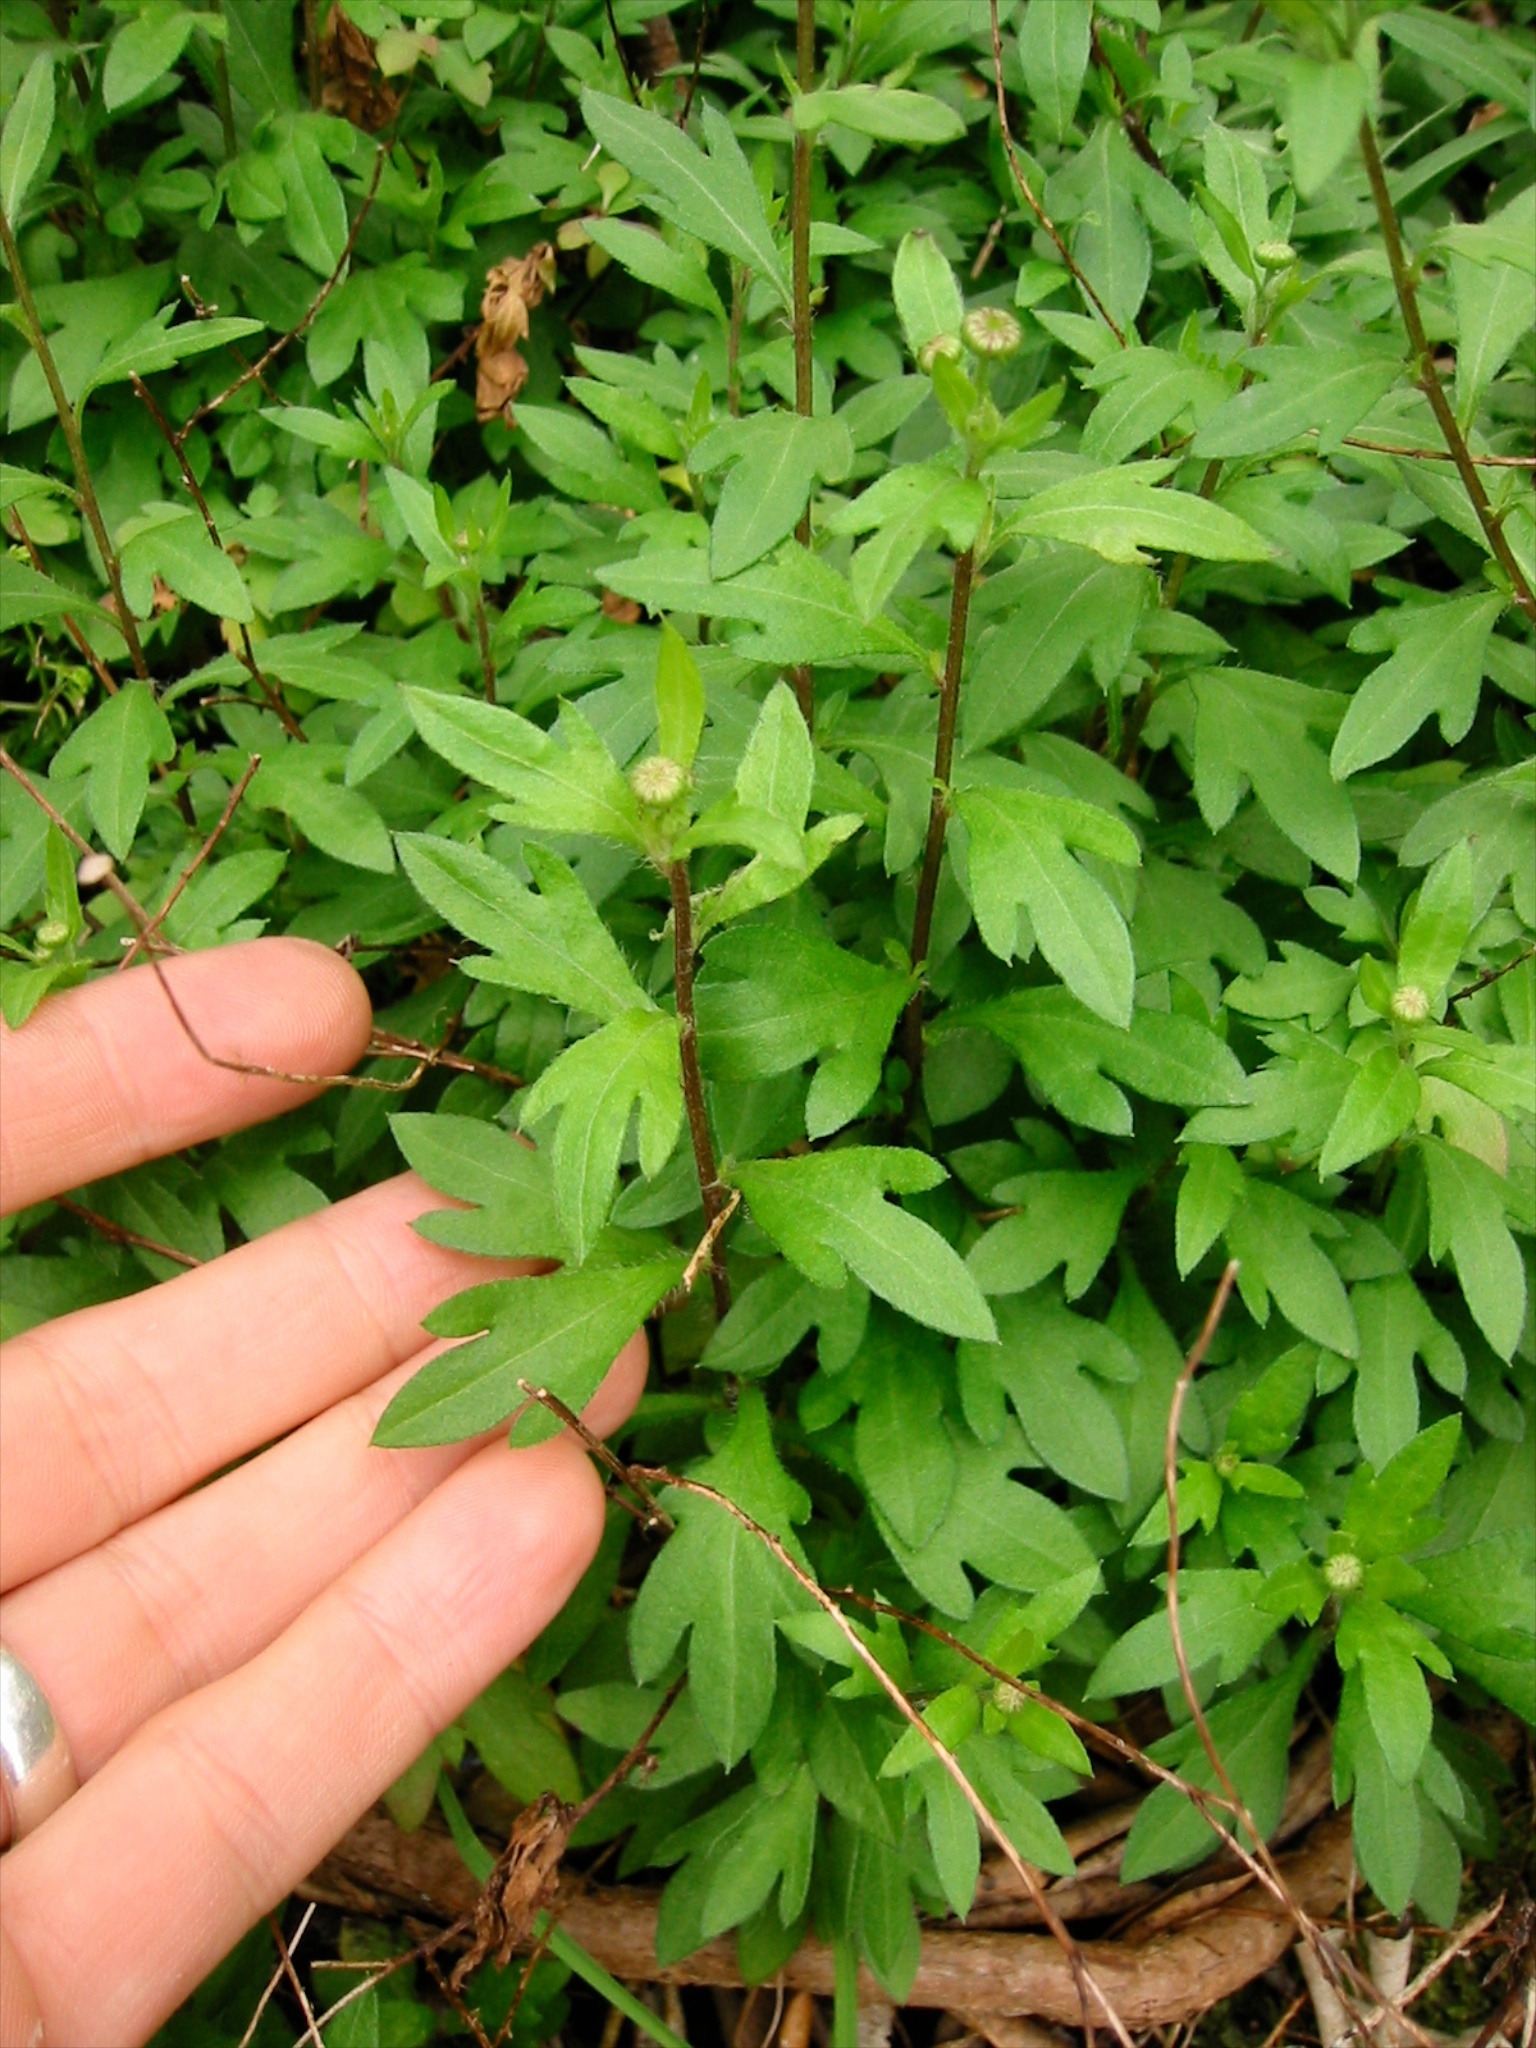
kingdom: Plantae
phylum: Tracheophyta
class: Magnoliopsida
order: Asterales
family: Asteraceae
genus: Erigeron
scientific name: Erigeron karvinskianus
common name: Mexican fleabane
